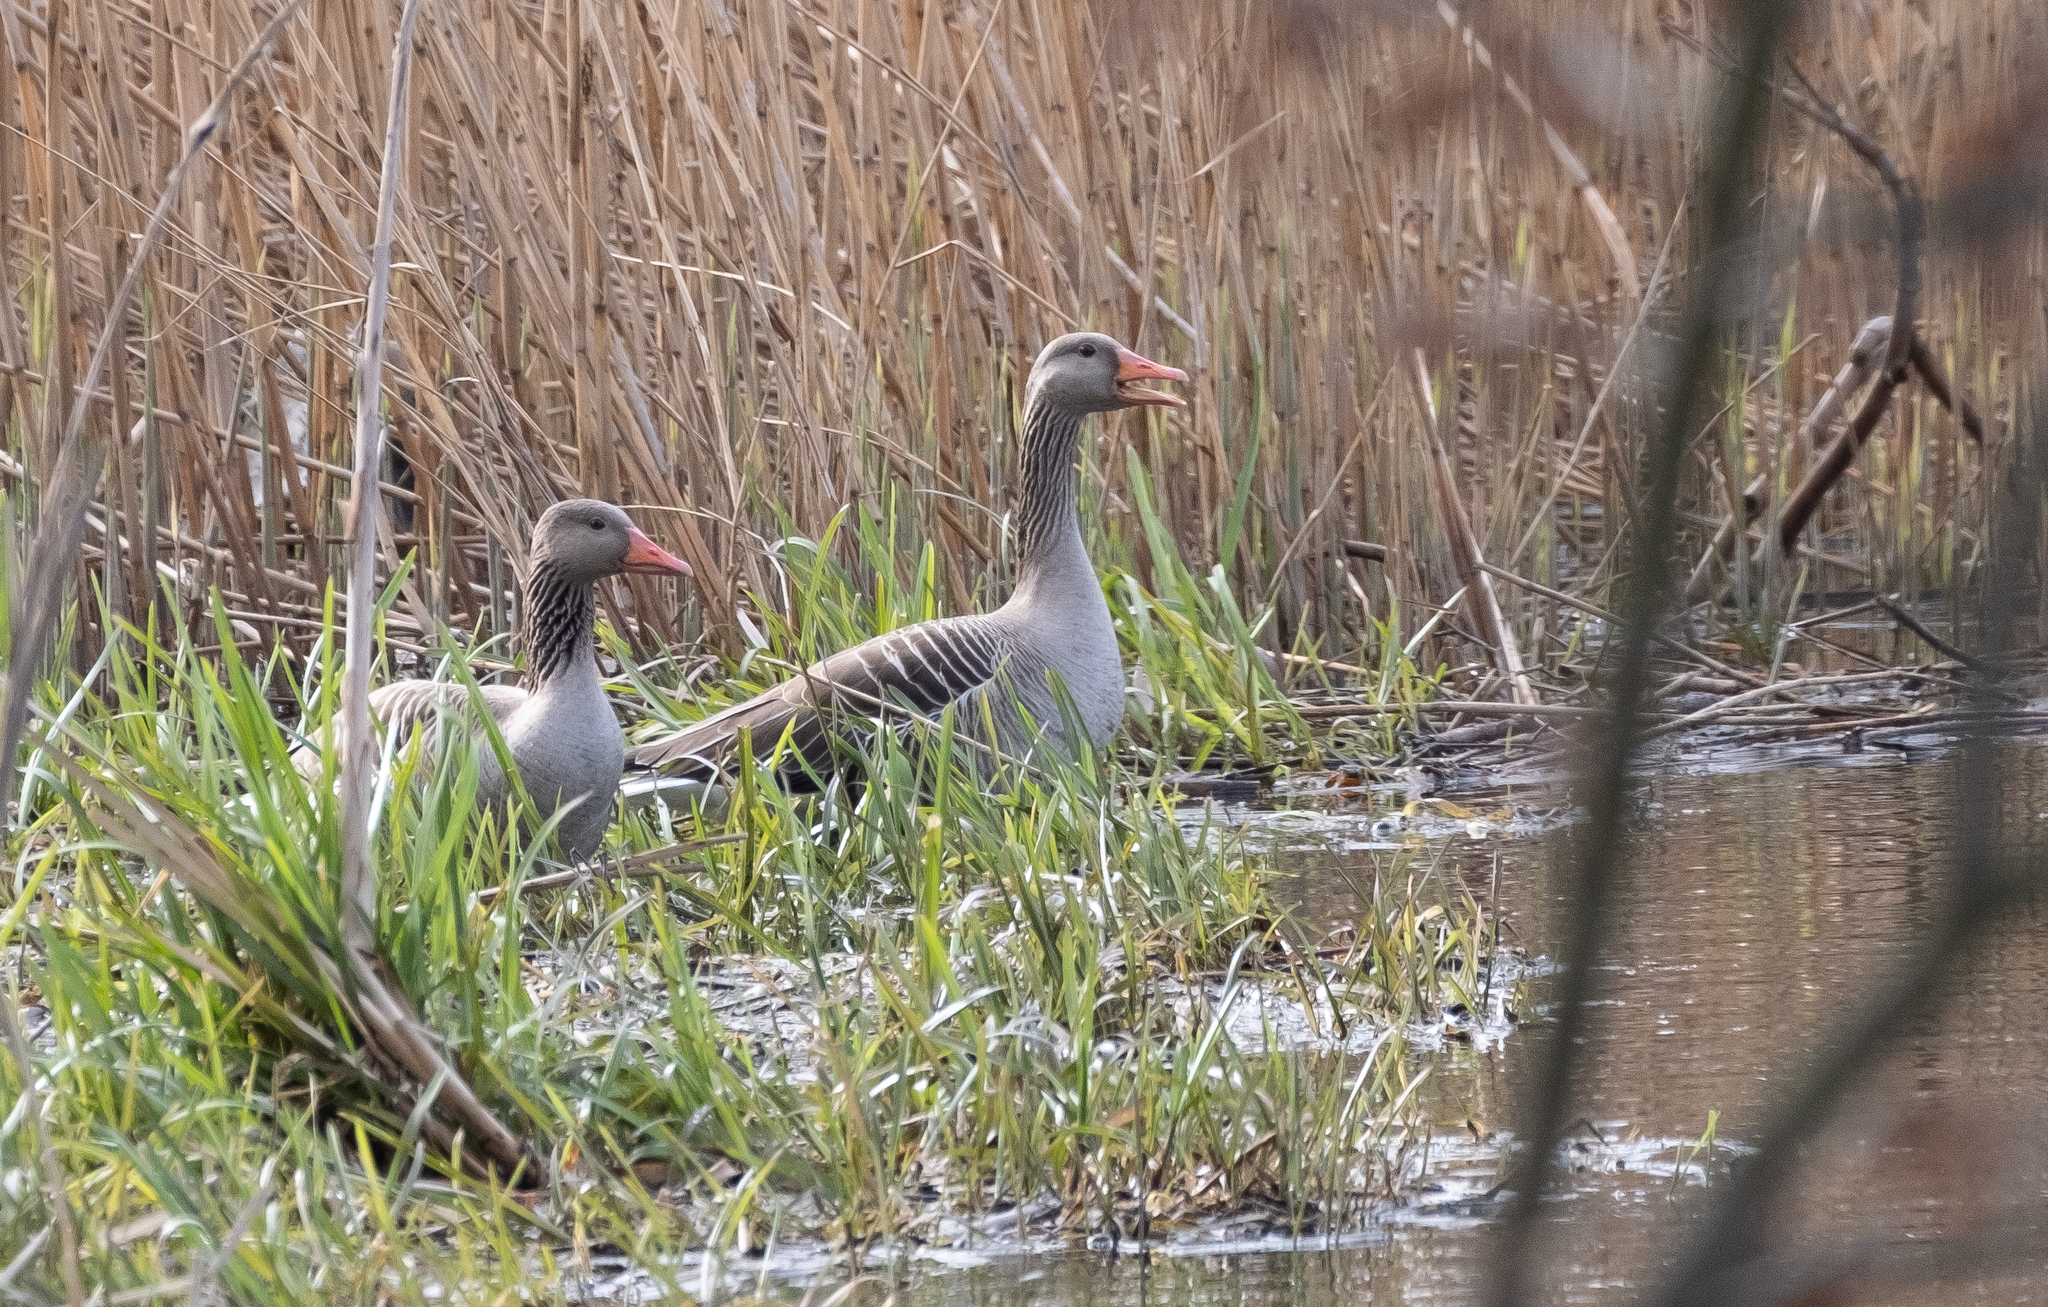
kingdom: Animalia
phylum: Chordata
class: Aves
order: Anseriformes
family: Anatidae
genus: Anser
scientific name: Anser anser
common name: Greylag goose
